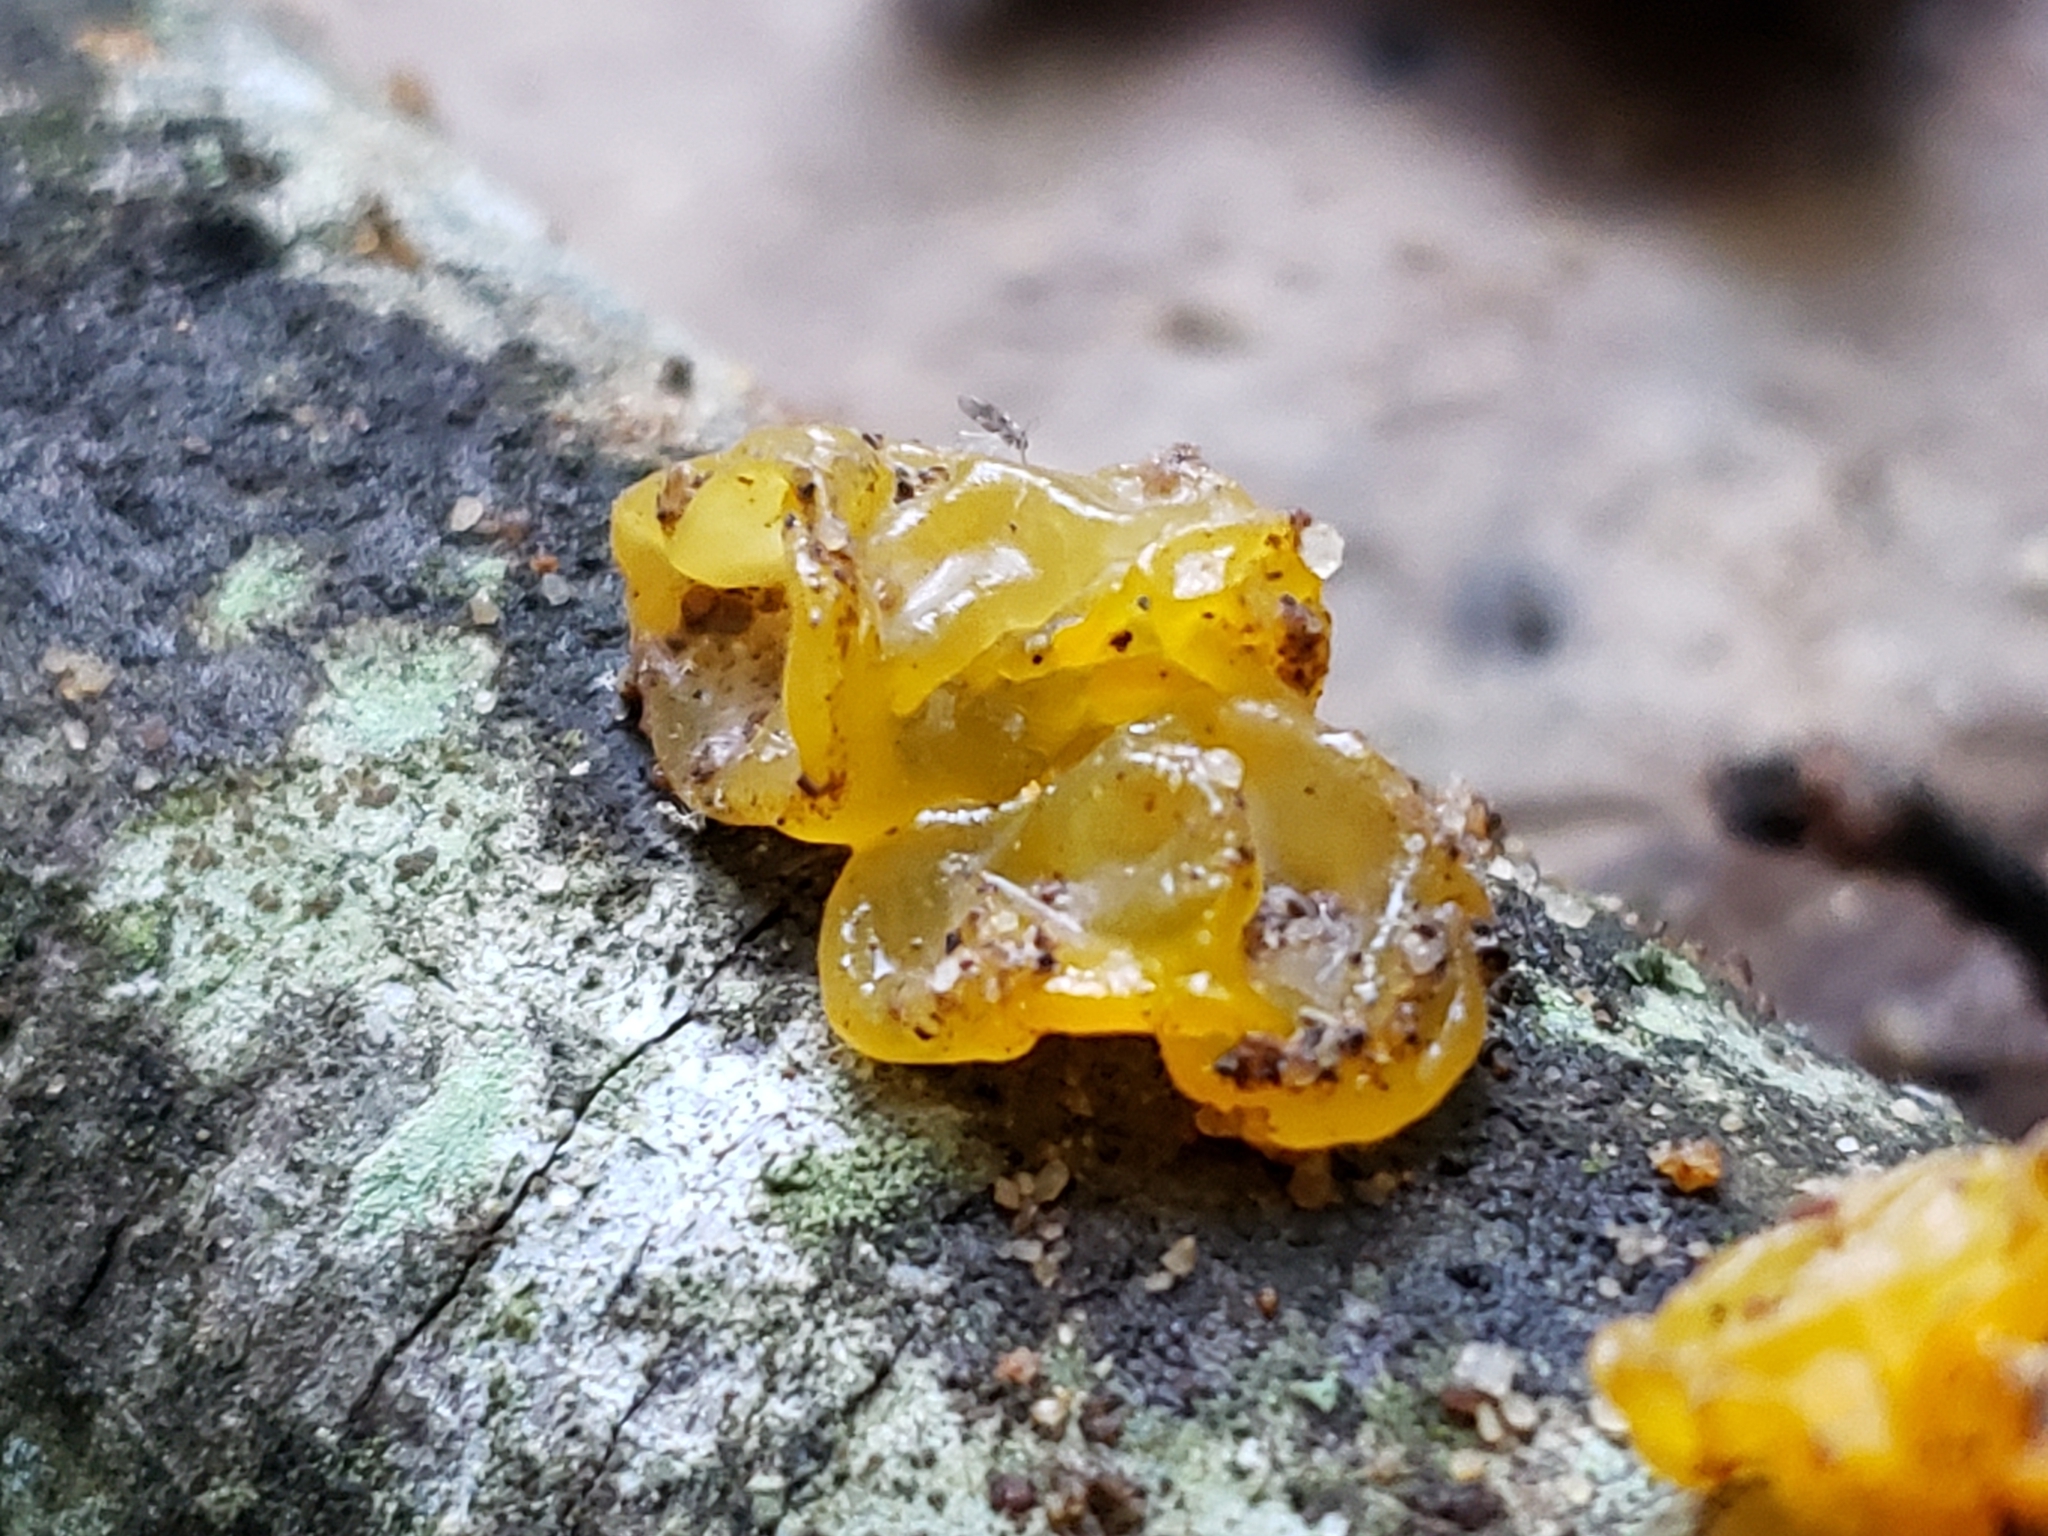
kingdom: Fungi
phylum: Basidiomycota
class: Tremellomycetes
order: Tremellales
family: Tremellaceae
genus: Tremella
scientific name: Tremella mesenterica
